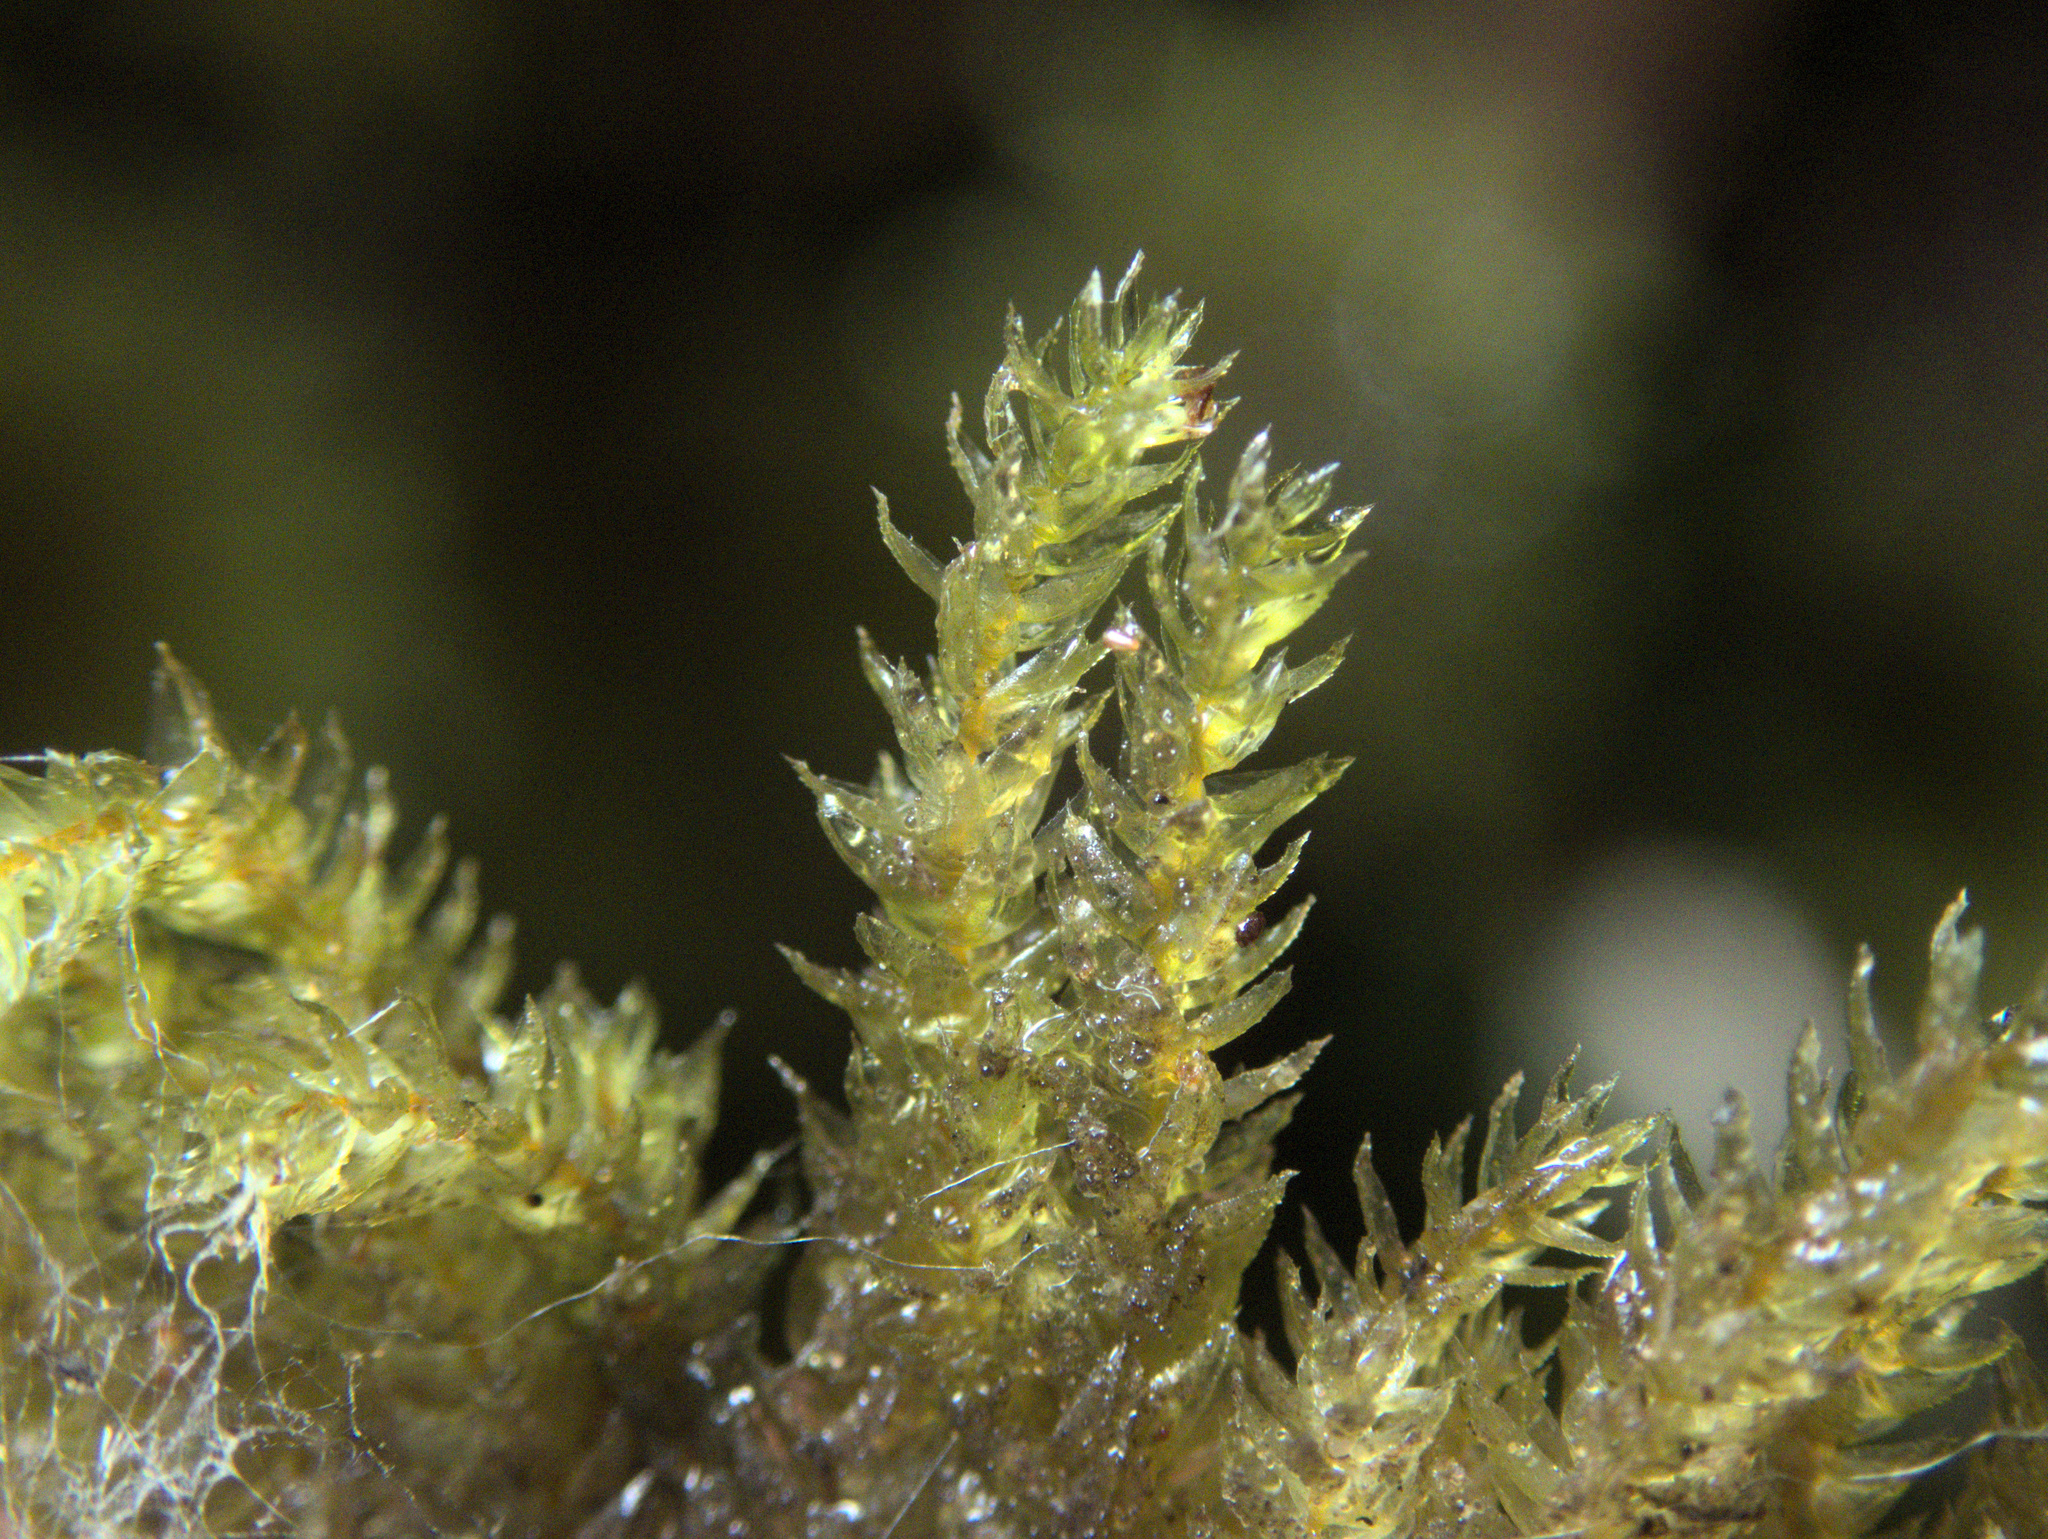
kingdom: Plantae
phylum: Bryophyta
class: Bryopsida
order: Hypnodendrales
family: Pterobryellaceae
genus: Sciadocladus
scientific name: Sciadocladus menziesii
